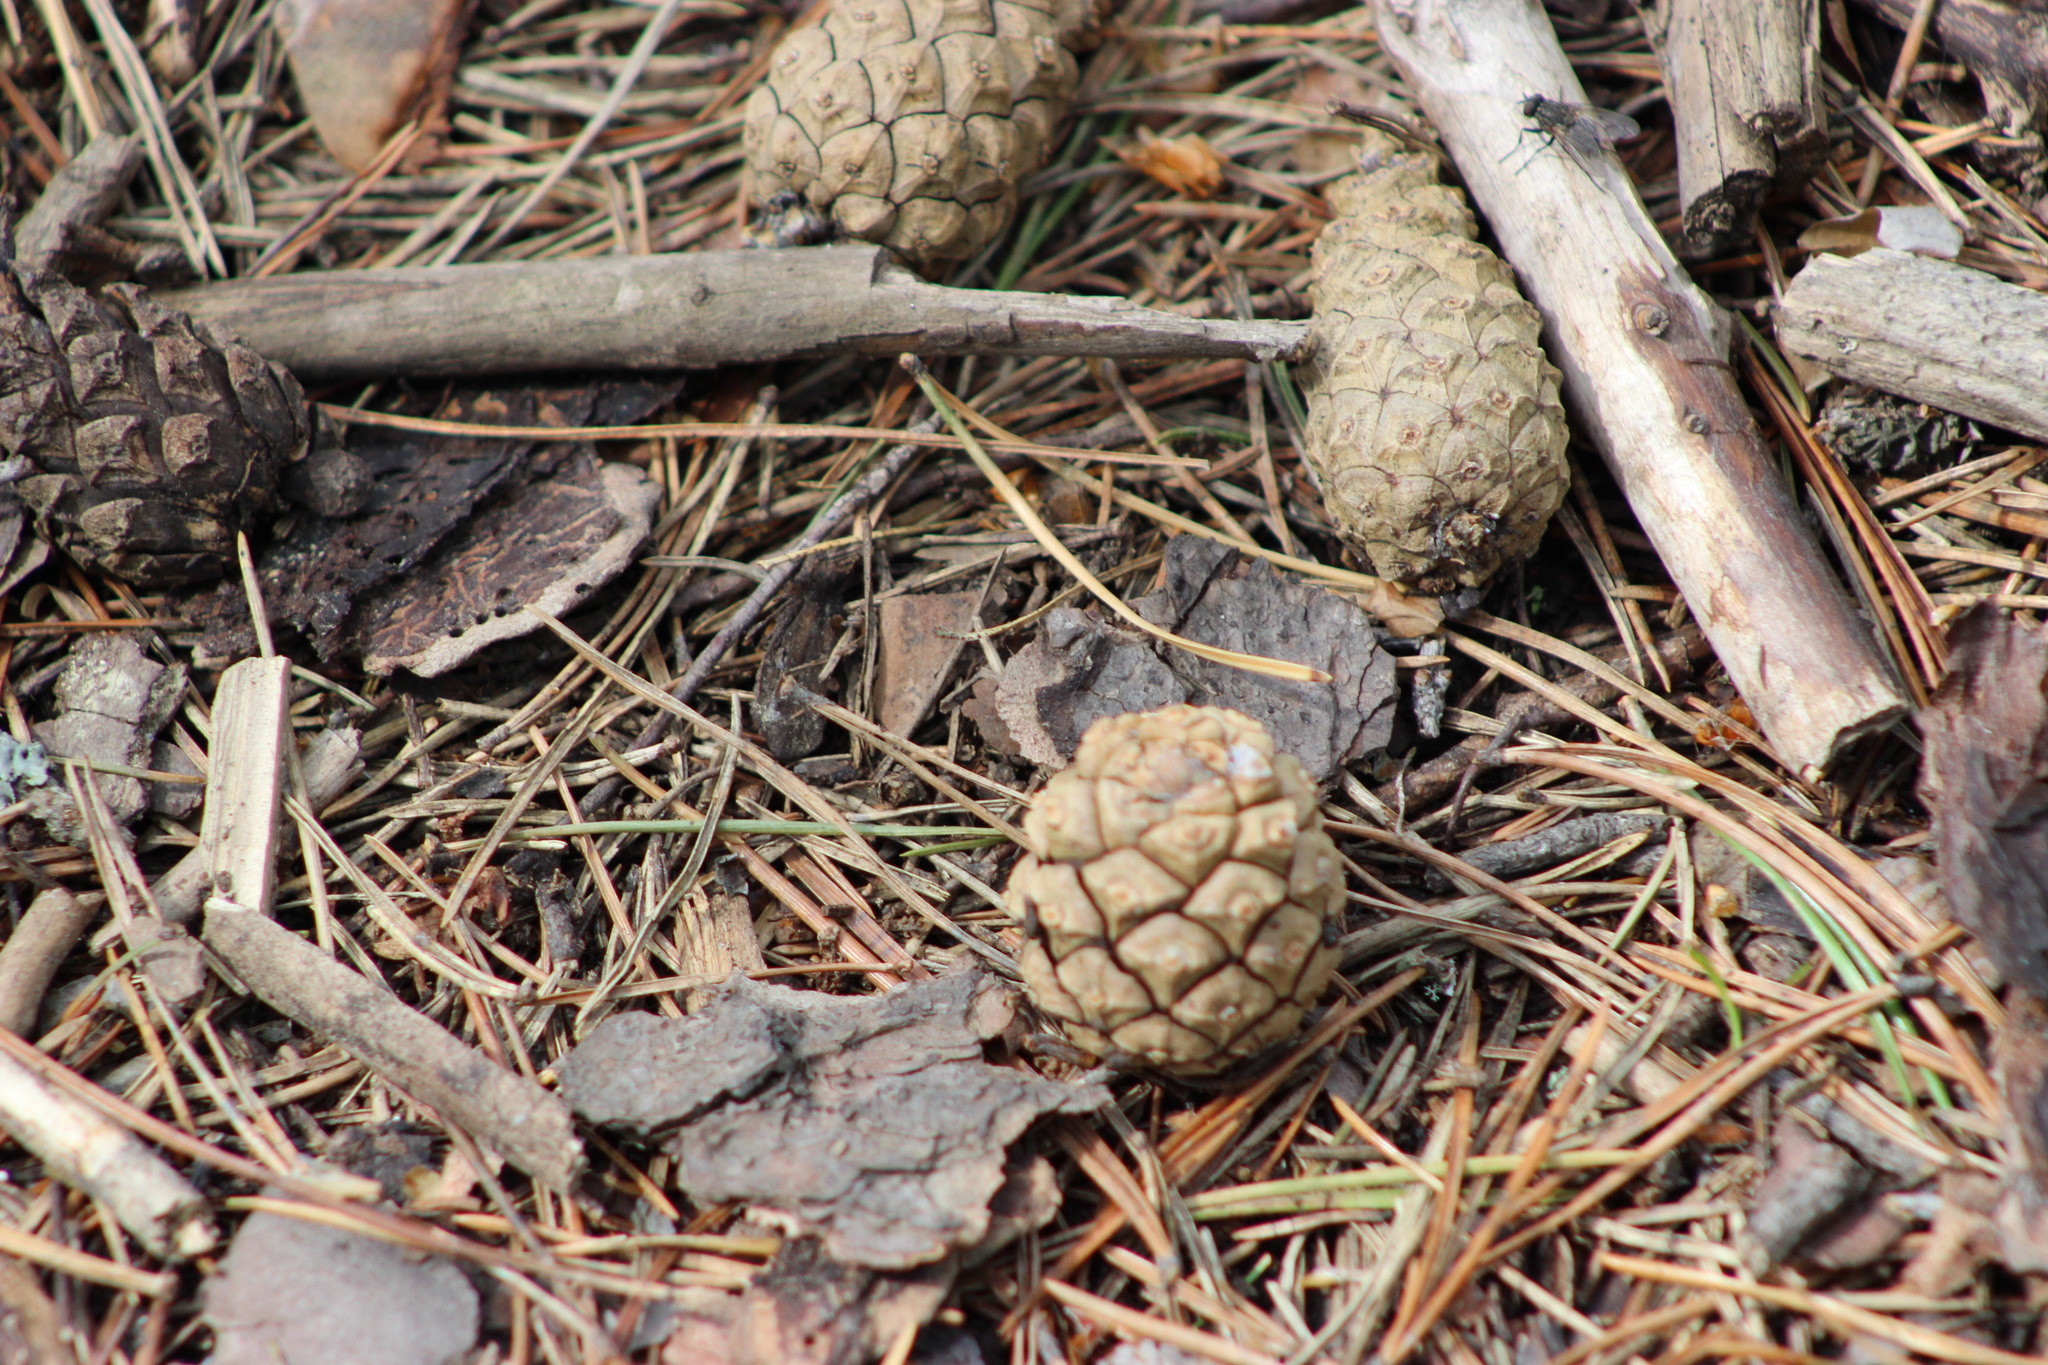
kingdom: Plantae
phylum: Tracheophyta
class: Pinopsida
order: Pinales
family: Pinaceae
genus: Pinus
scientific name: Pinus sylvestris
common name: Scots pine
